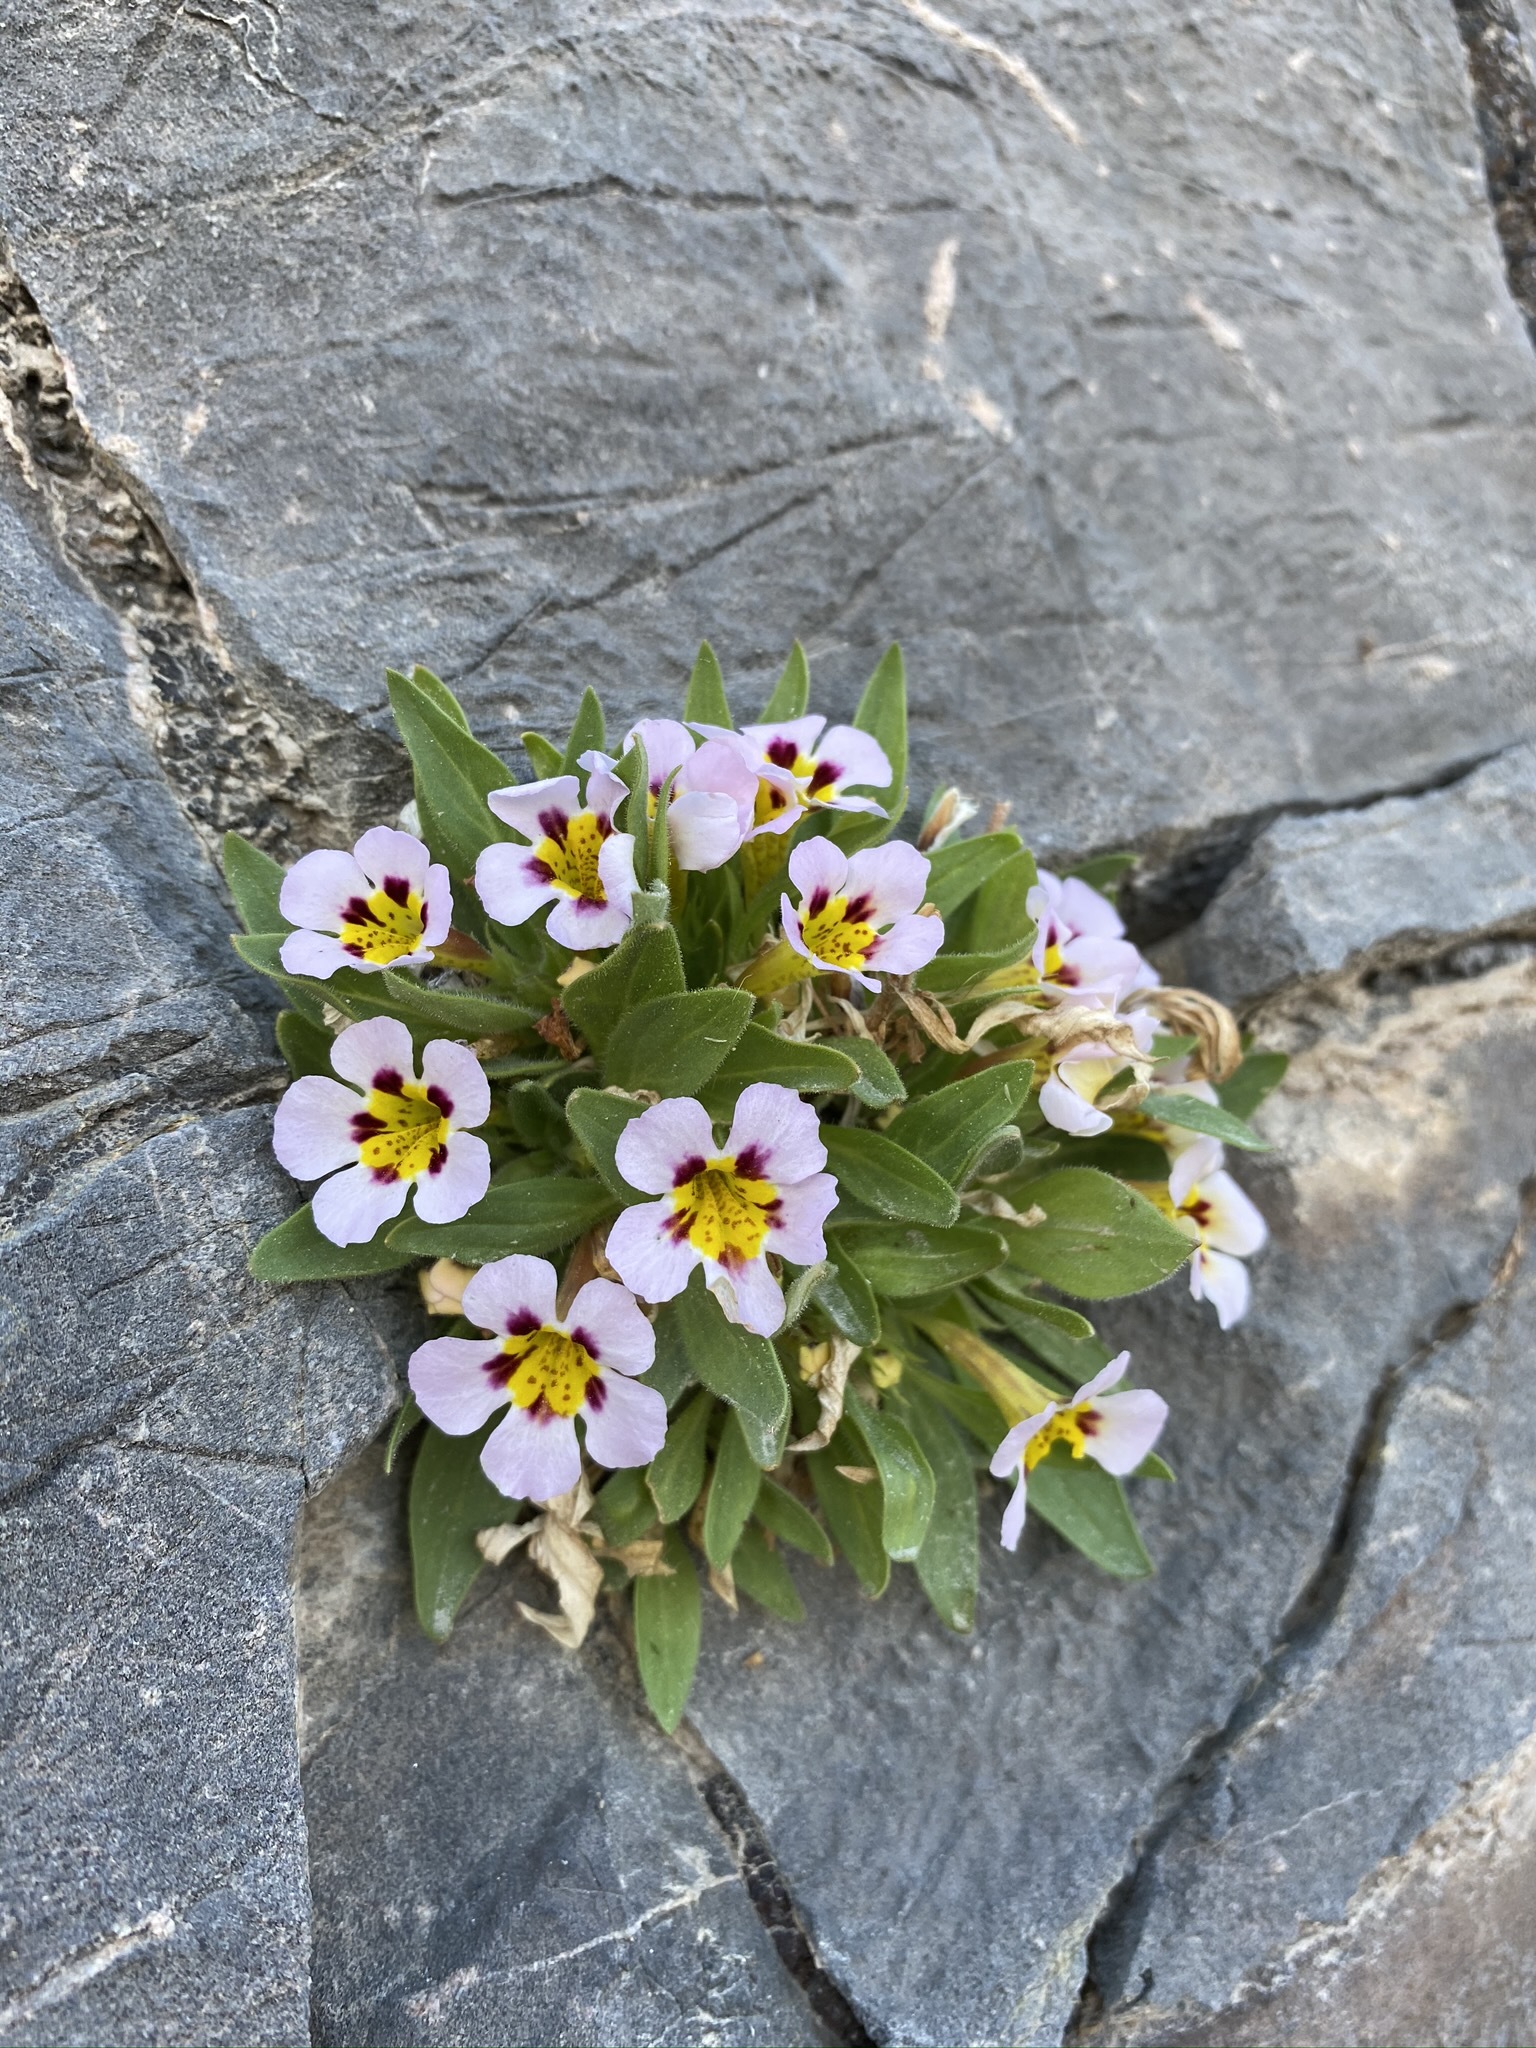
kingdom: Plantae
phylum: Tracheophyta
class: Magnoliopsida
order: Lamiales
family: Phrymaceae
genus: Diplacus
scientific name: Diplacus rupicola
